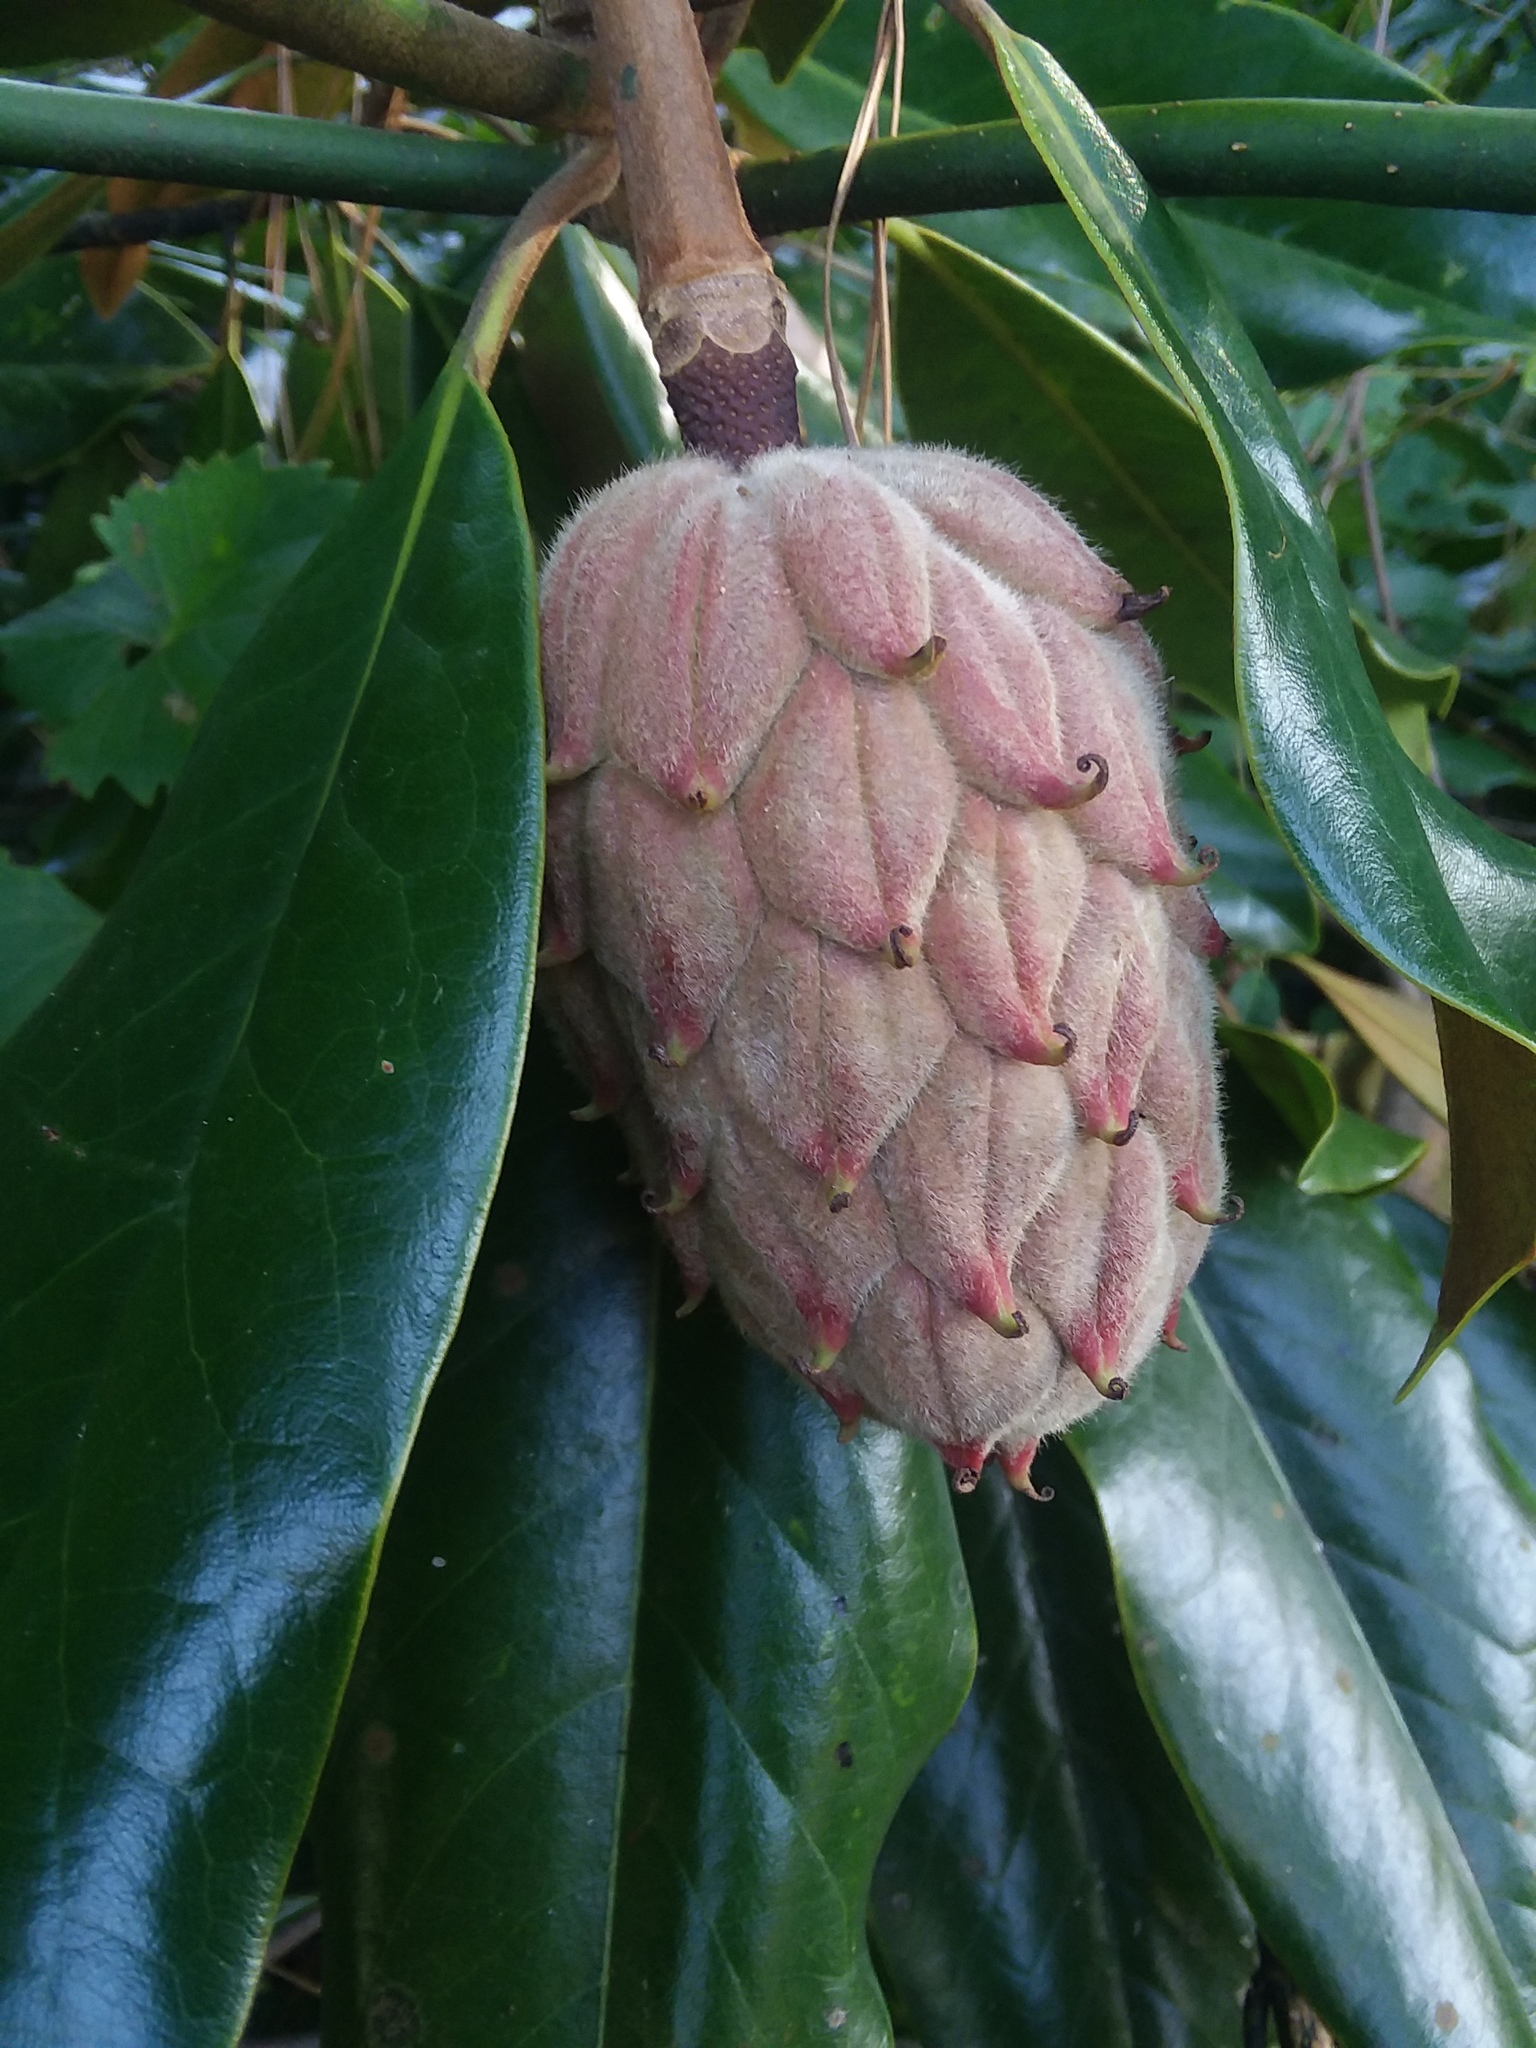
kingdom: Plantae
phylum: Tracheophyta
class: Magnoliopsida
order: Magnoliales
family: Magnoliaceae
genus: Magnolia
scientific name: Magnolia grandiflora
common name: Southern magnolia
